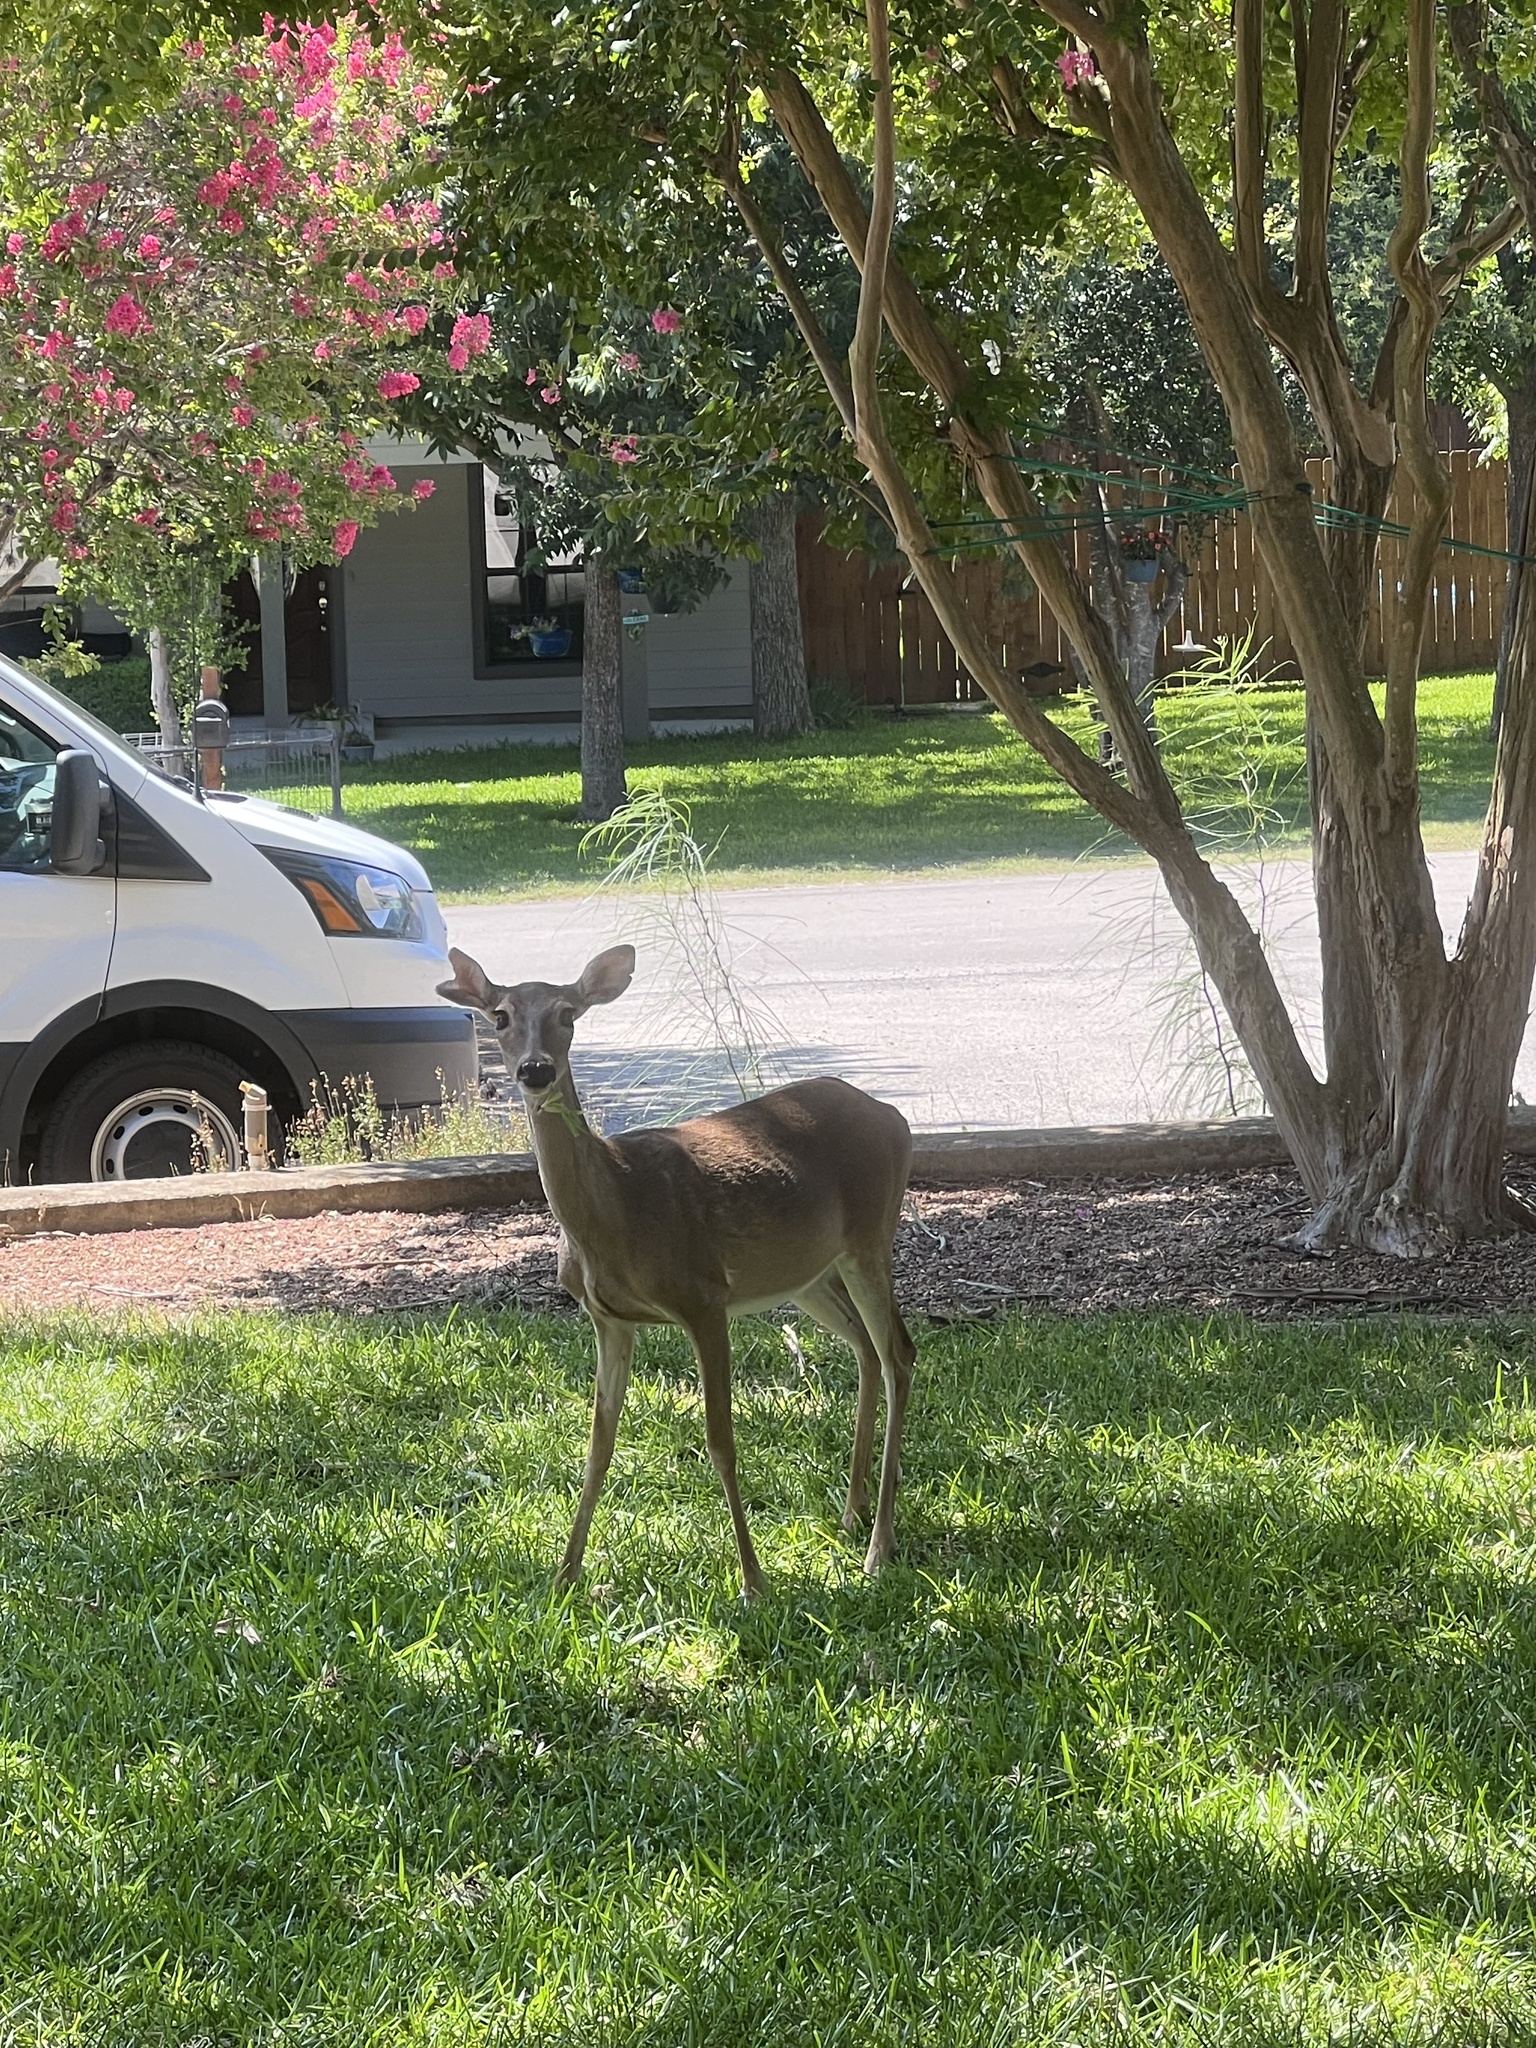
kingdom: Animalia
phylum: Chordata
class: Mammalia
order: Artiodactyla
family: Cervidae
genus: Odocoileus
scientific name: Odocoileus virginianus
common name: White-tailed deer
